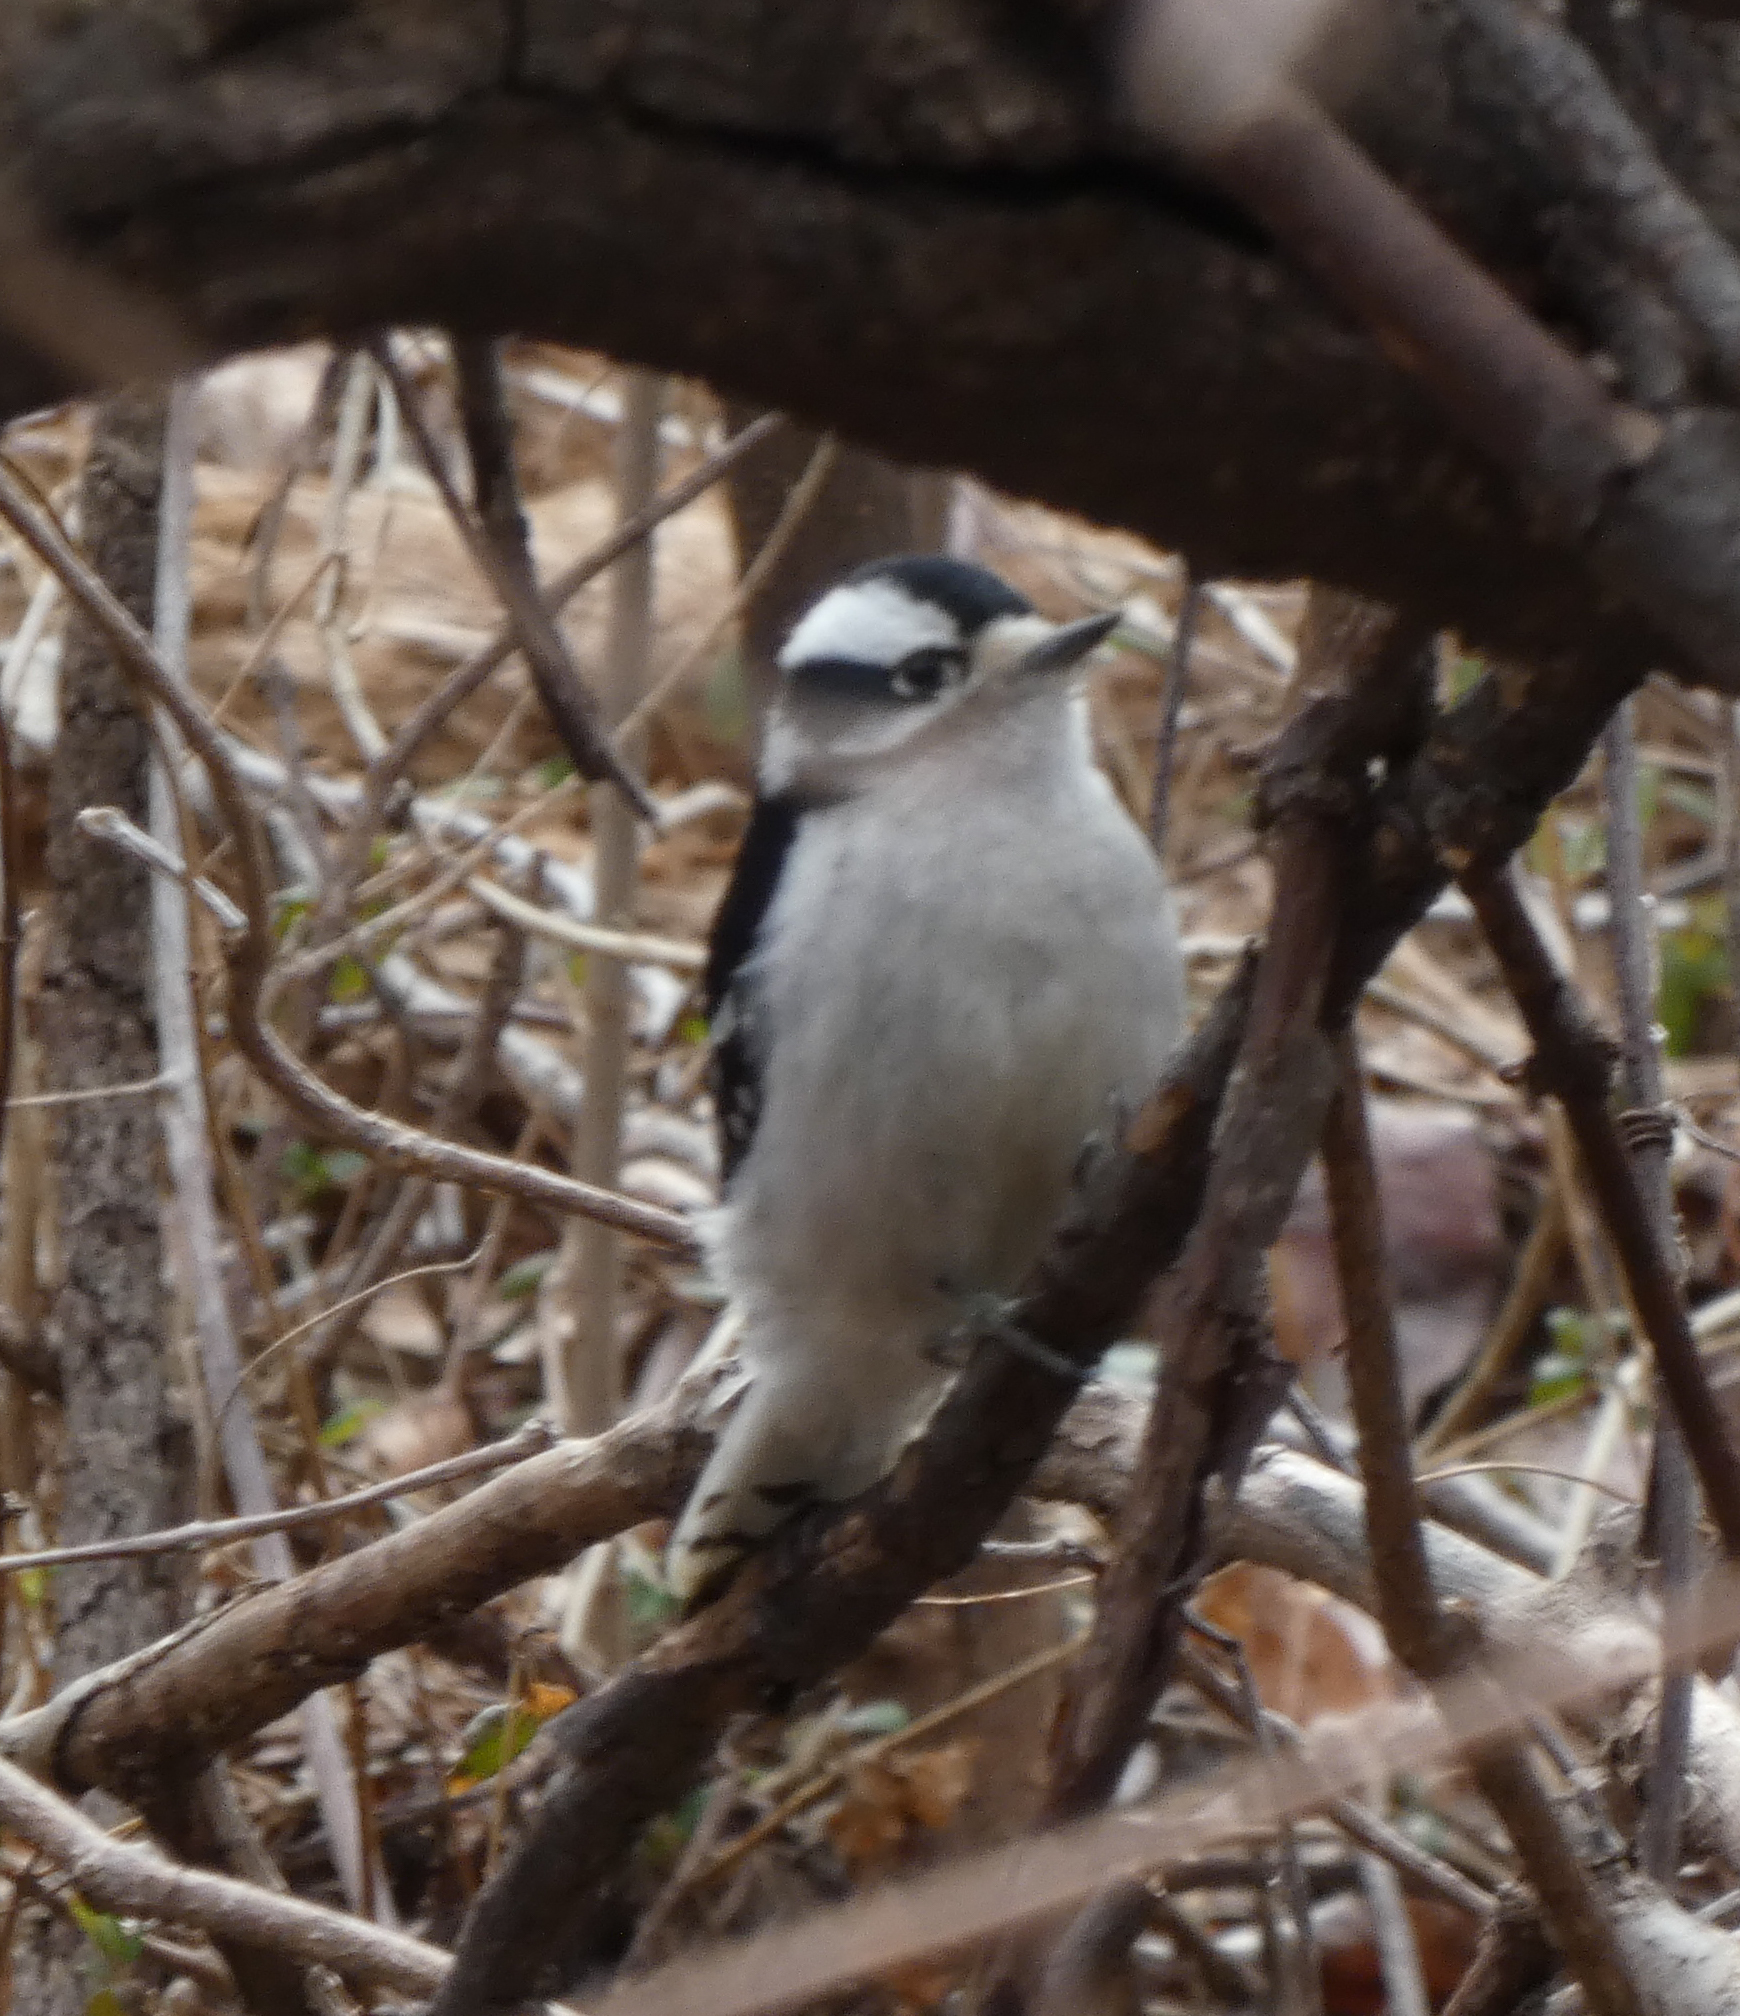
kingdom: Animalia
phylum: Chordata
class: Aves
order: Piciformes
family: Picidae
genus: Dryobates
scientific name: Dryobates pubescens
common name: Downy woodpecker
